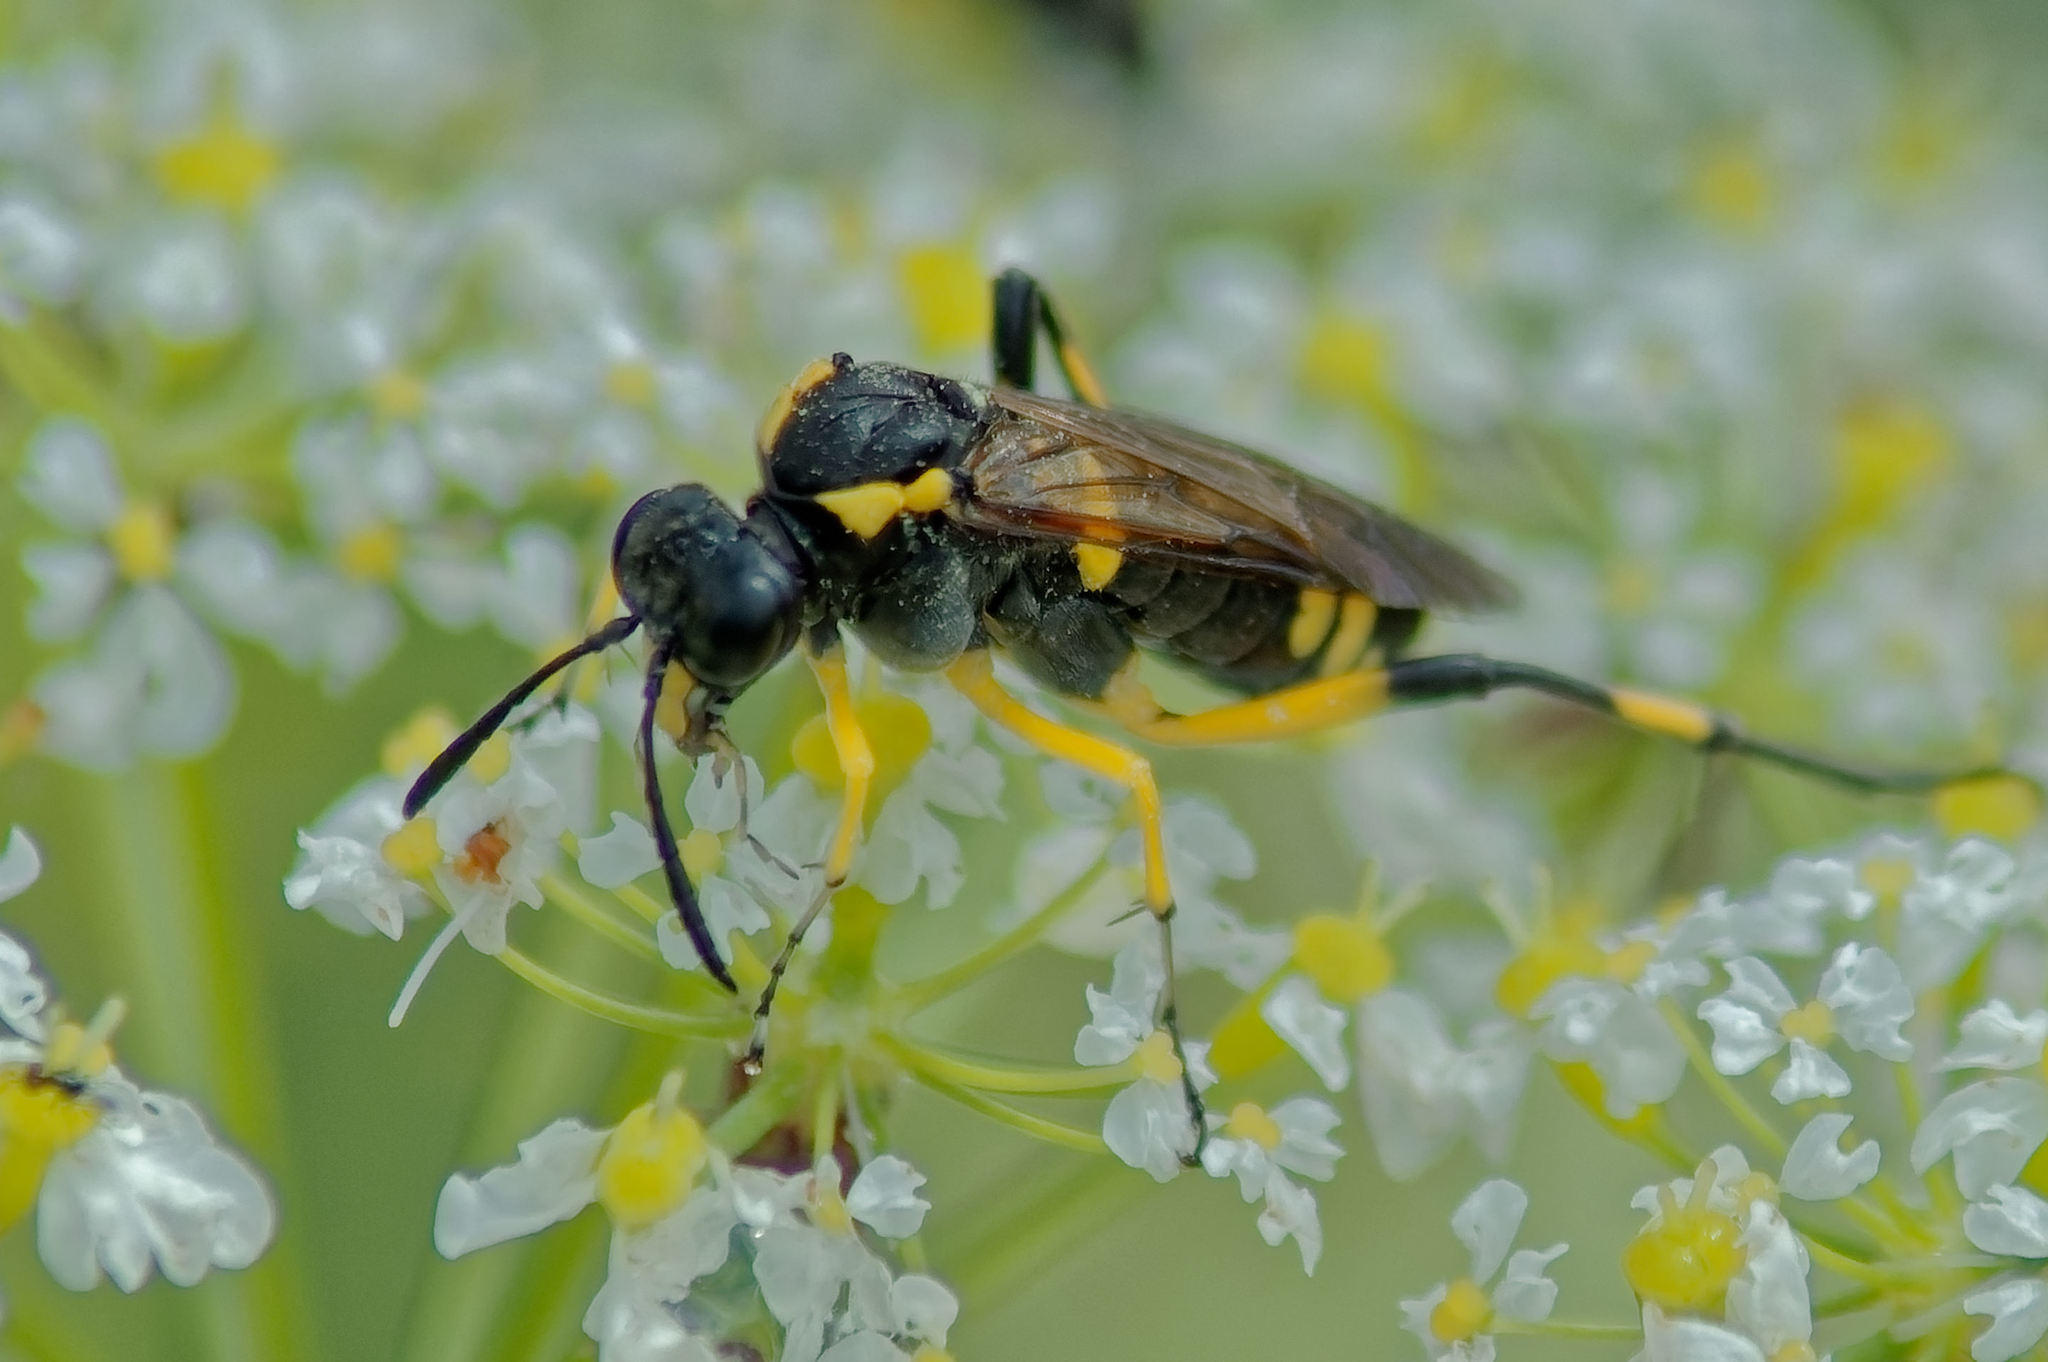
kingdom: Animalia
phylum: Arthropoda
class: Insecta
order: Hymenoptera
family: Tenthredinidae
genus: Macrophya
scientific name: Macrophya montana
